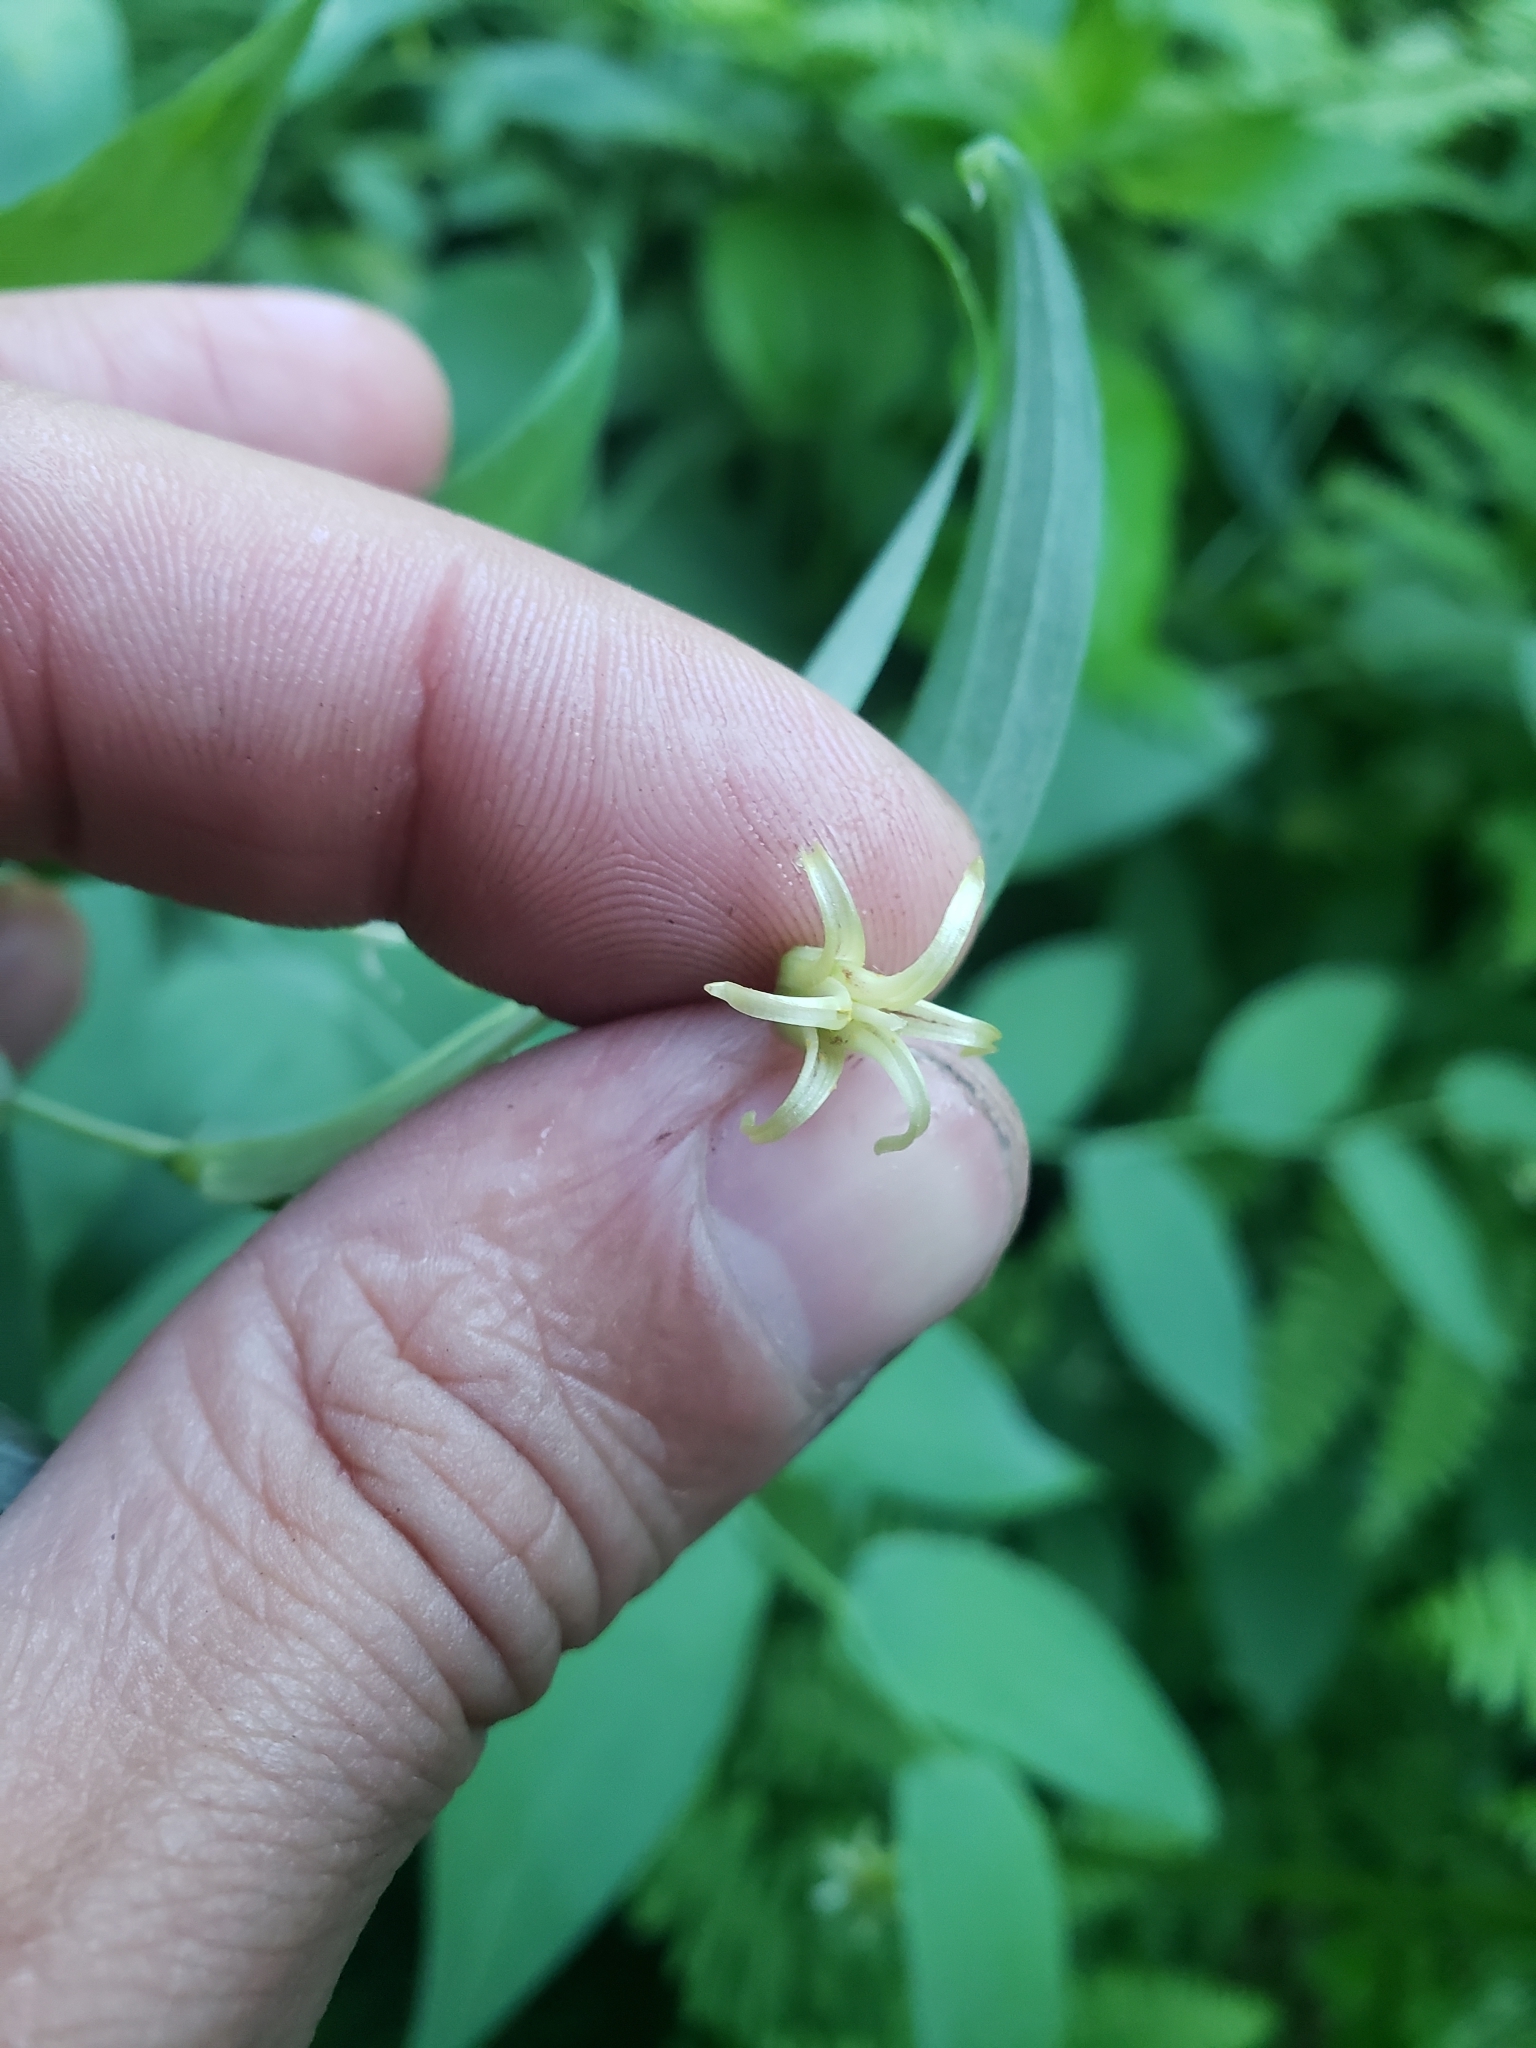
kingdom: Plantae
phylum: Tracheophyta
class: Liliopsida
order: Liliales
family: Liliaceae
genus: Streptopus
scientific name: Streptopus amplexifolius
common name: Clasp twisted stalk
